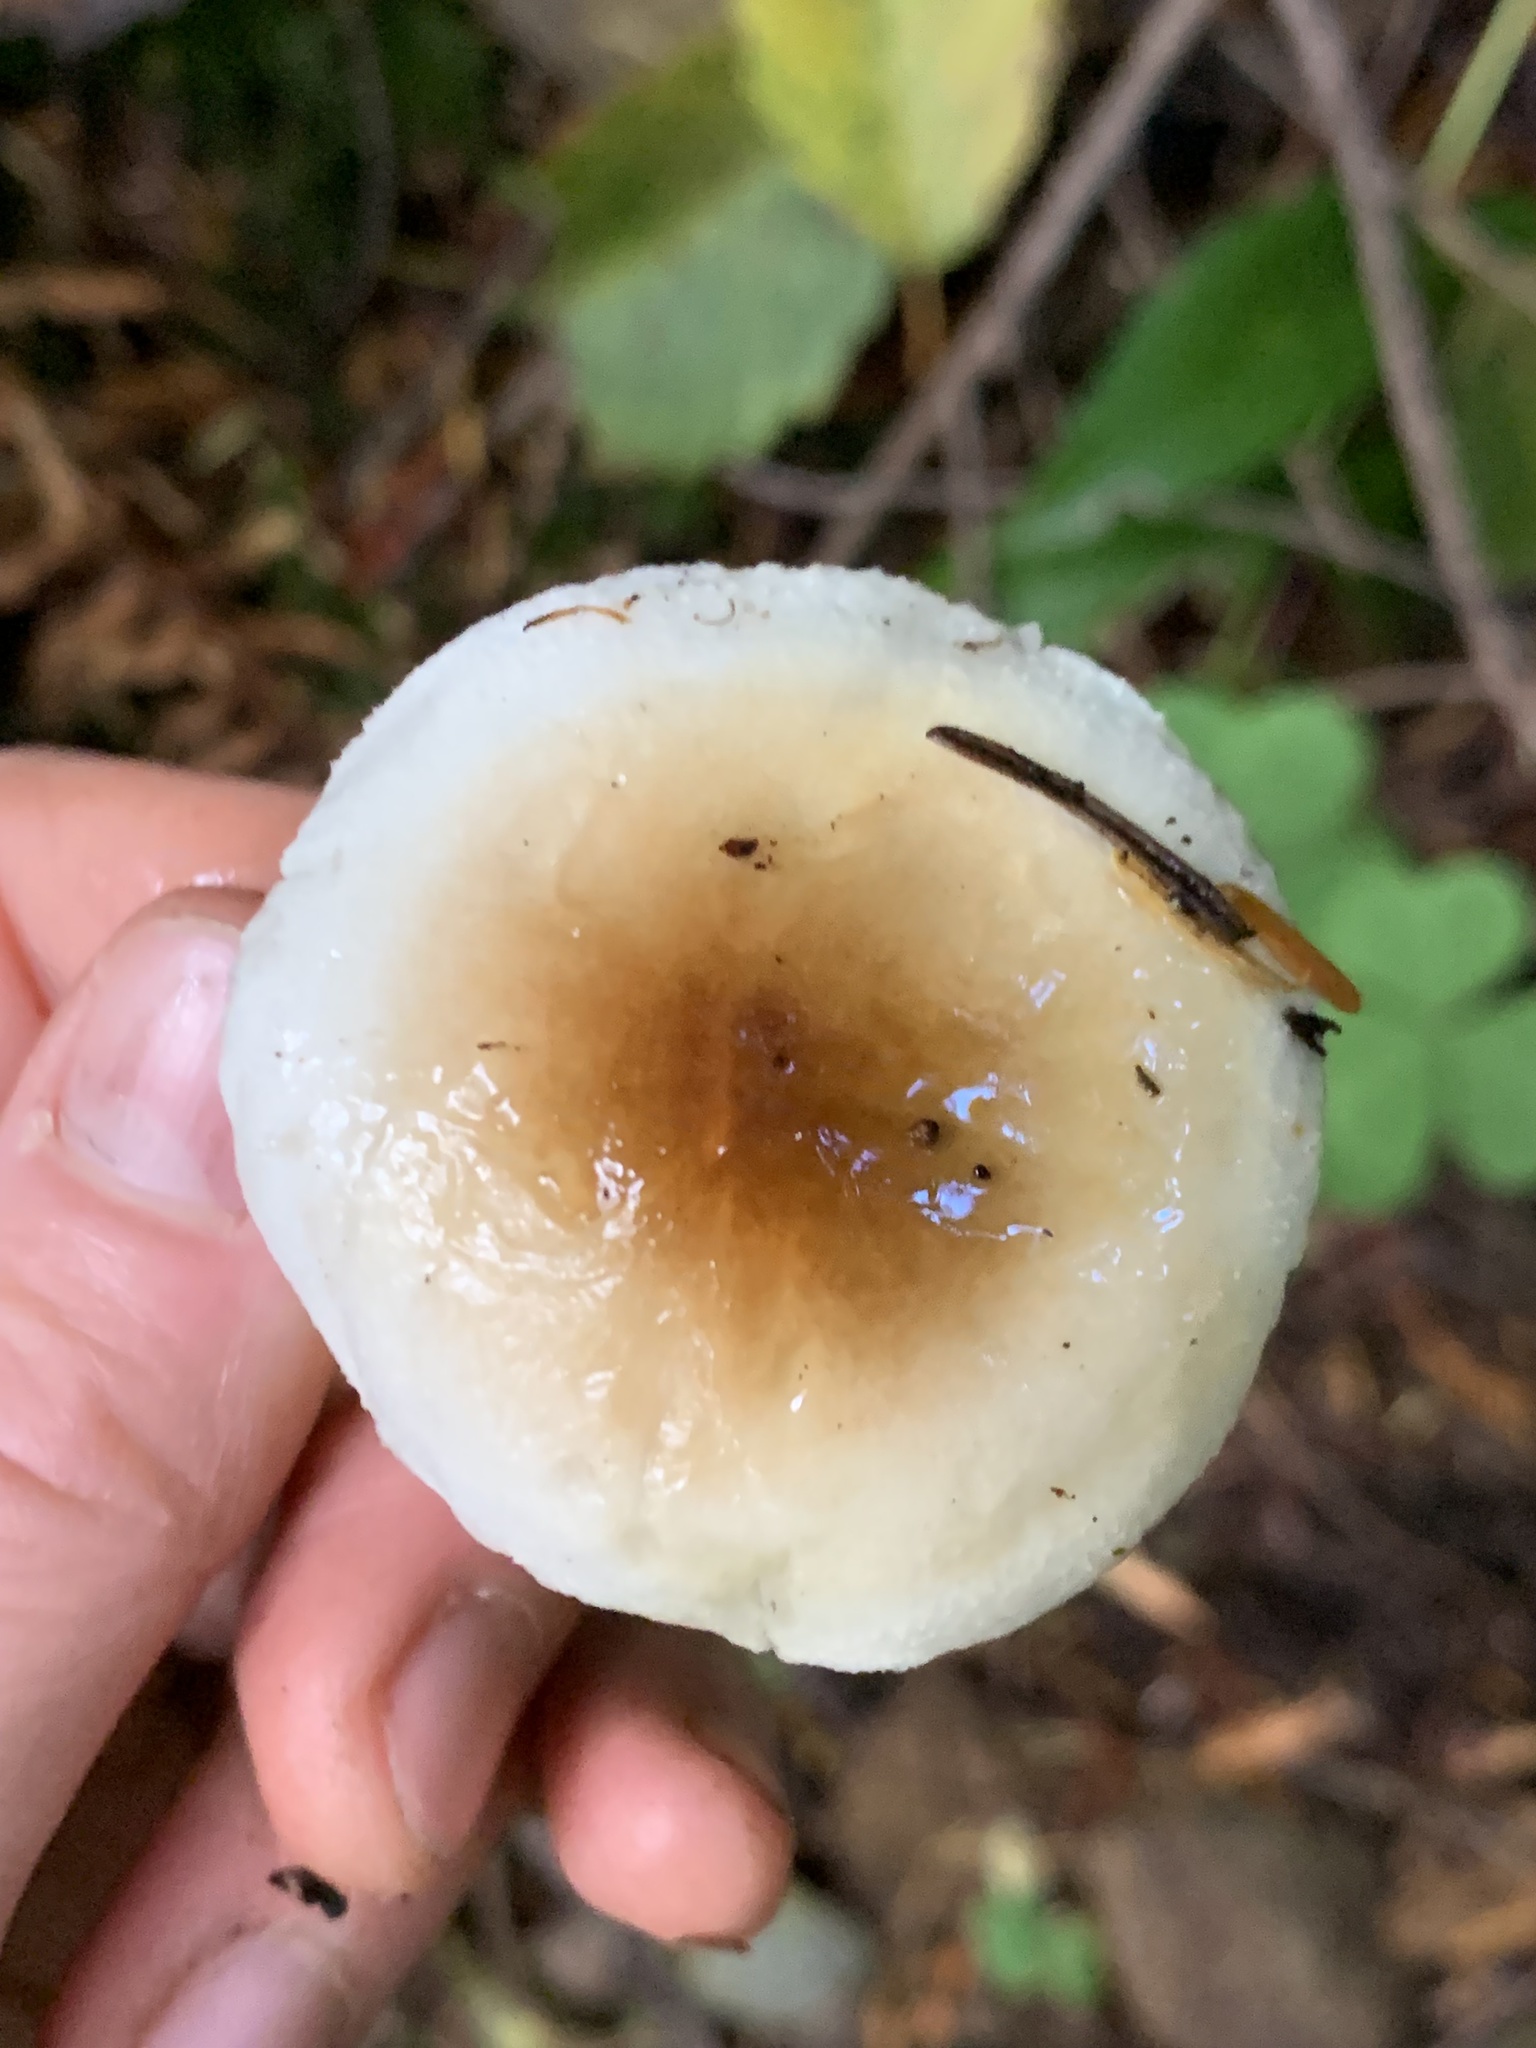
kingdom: Fungi
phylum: Basidiomycota
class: Agaricomycetes
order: Agaricales
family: Hygrophoraceae
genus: Hygrophorus
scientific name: Hygrophorus bakerensis
